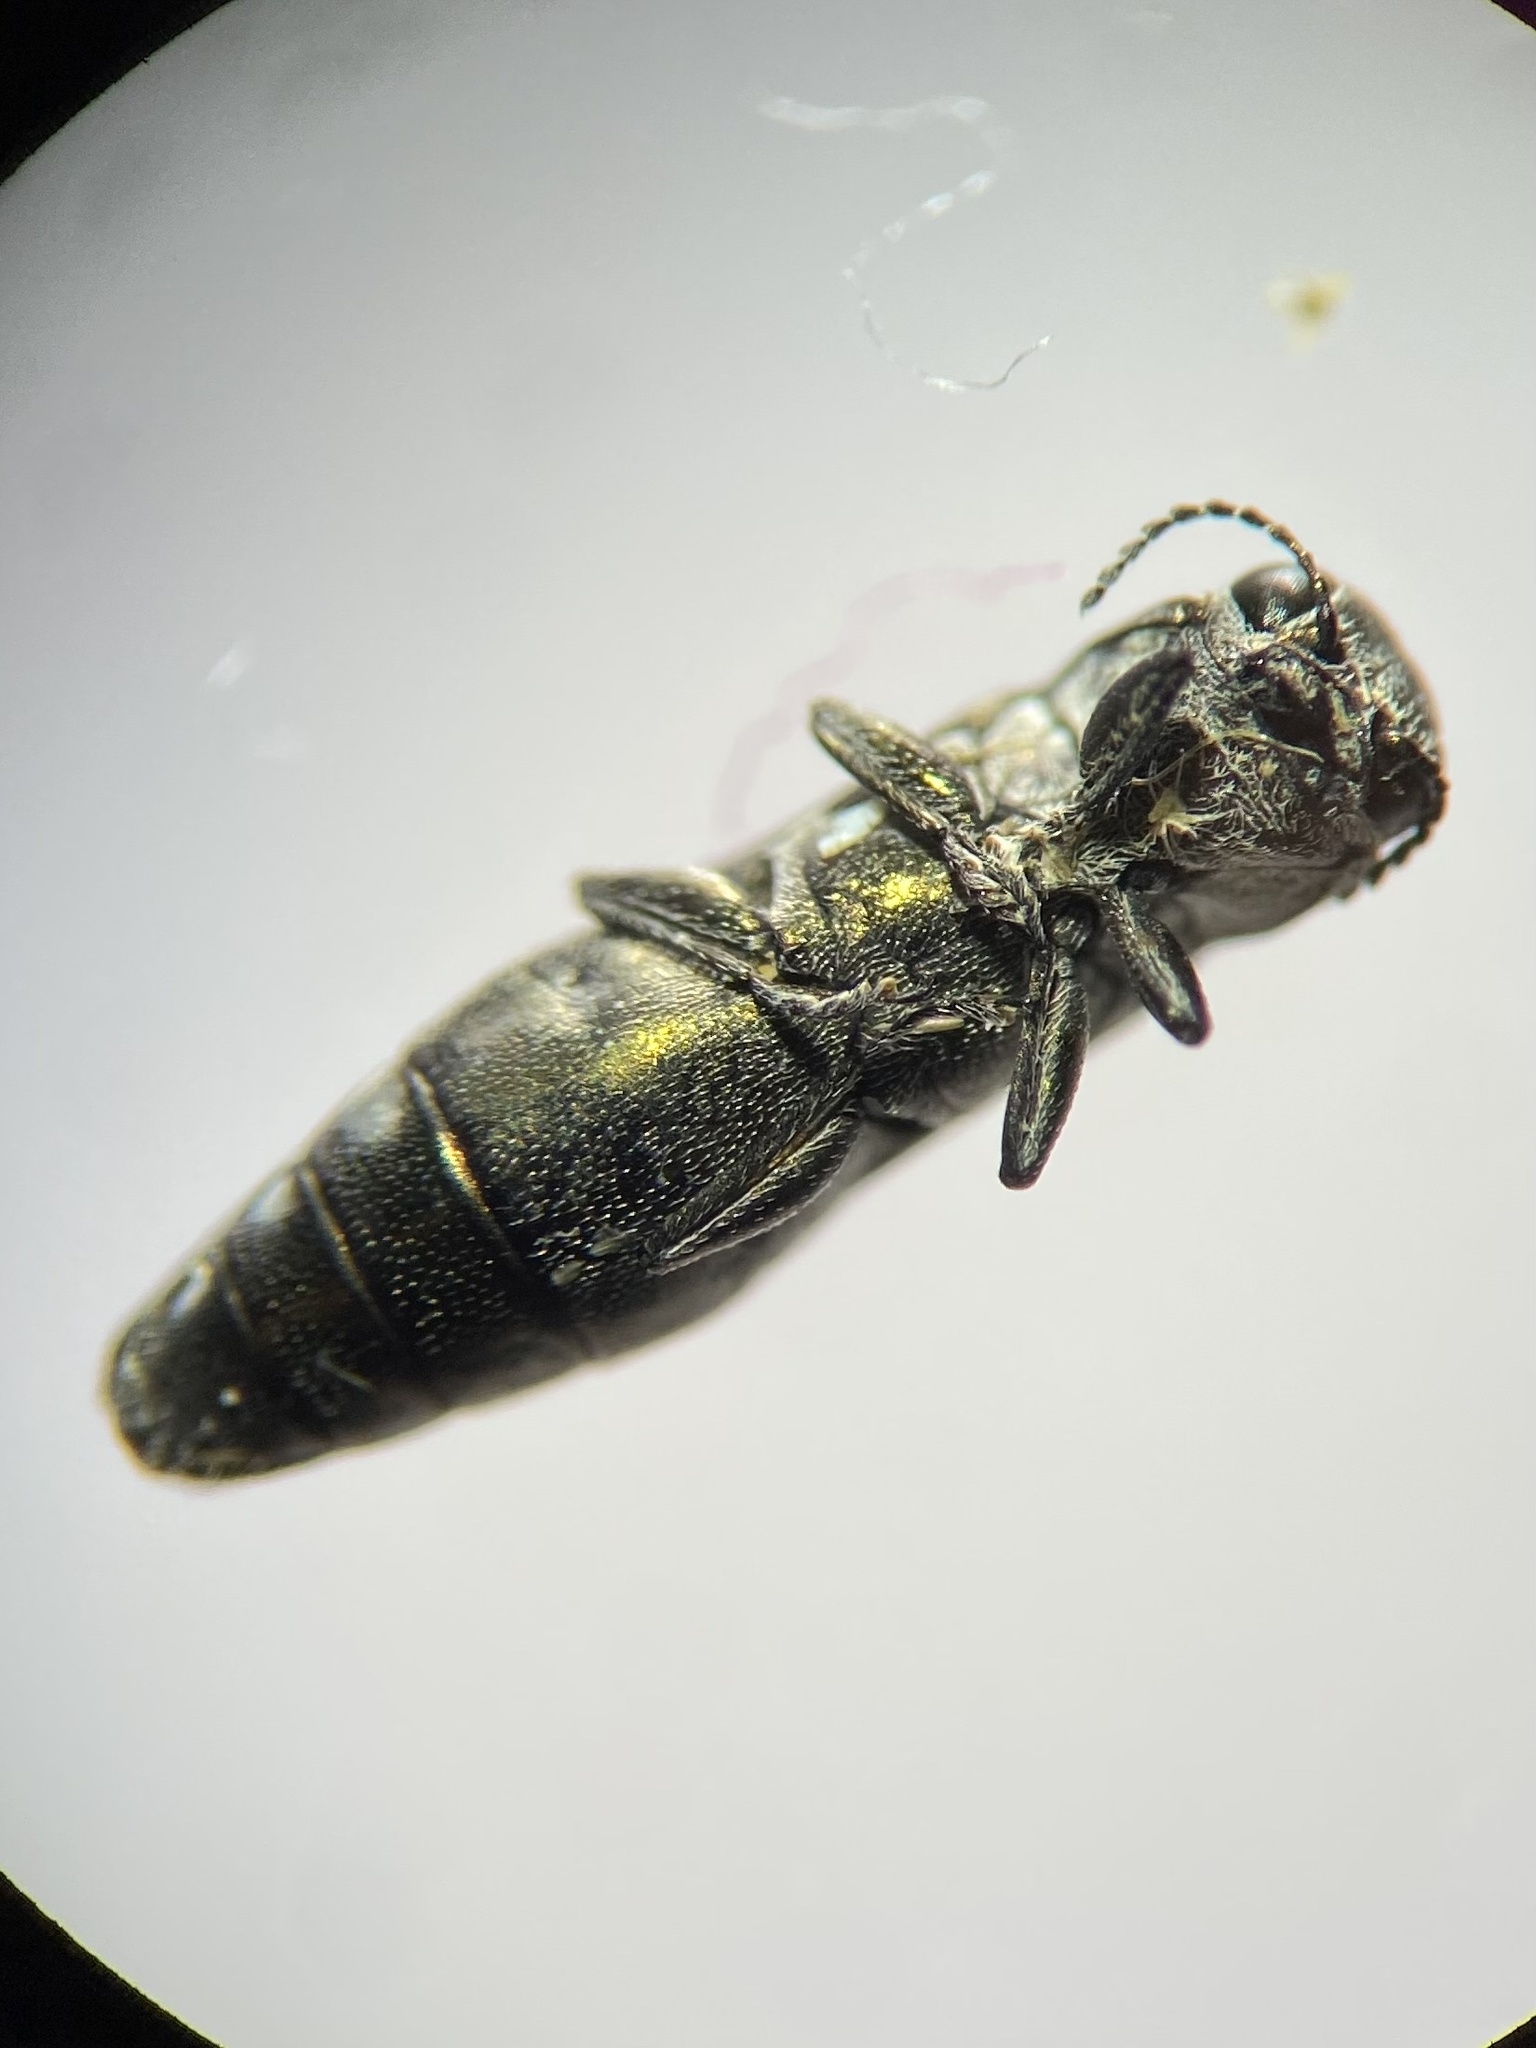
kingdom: Animalia
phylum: Arthropoda
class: Insecta
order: Coleoptera
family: Buprestidae
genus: Agrilus
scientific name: Agrilus fallax
